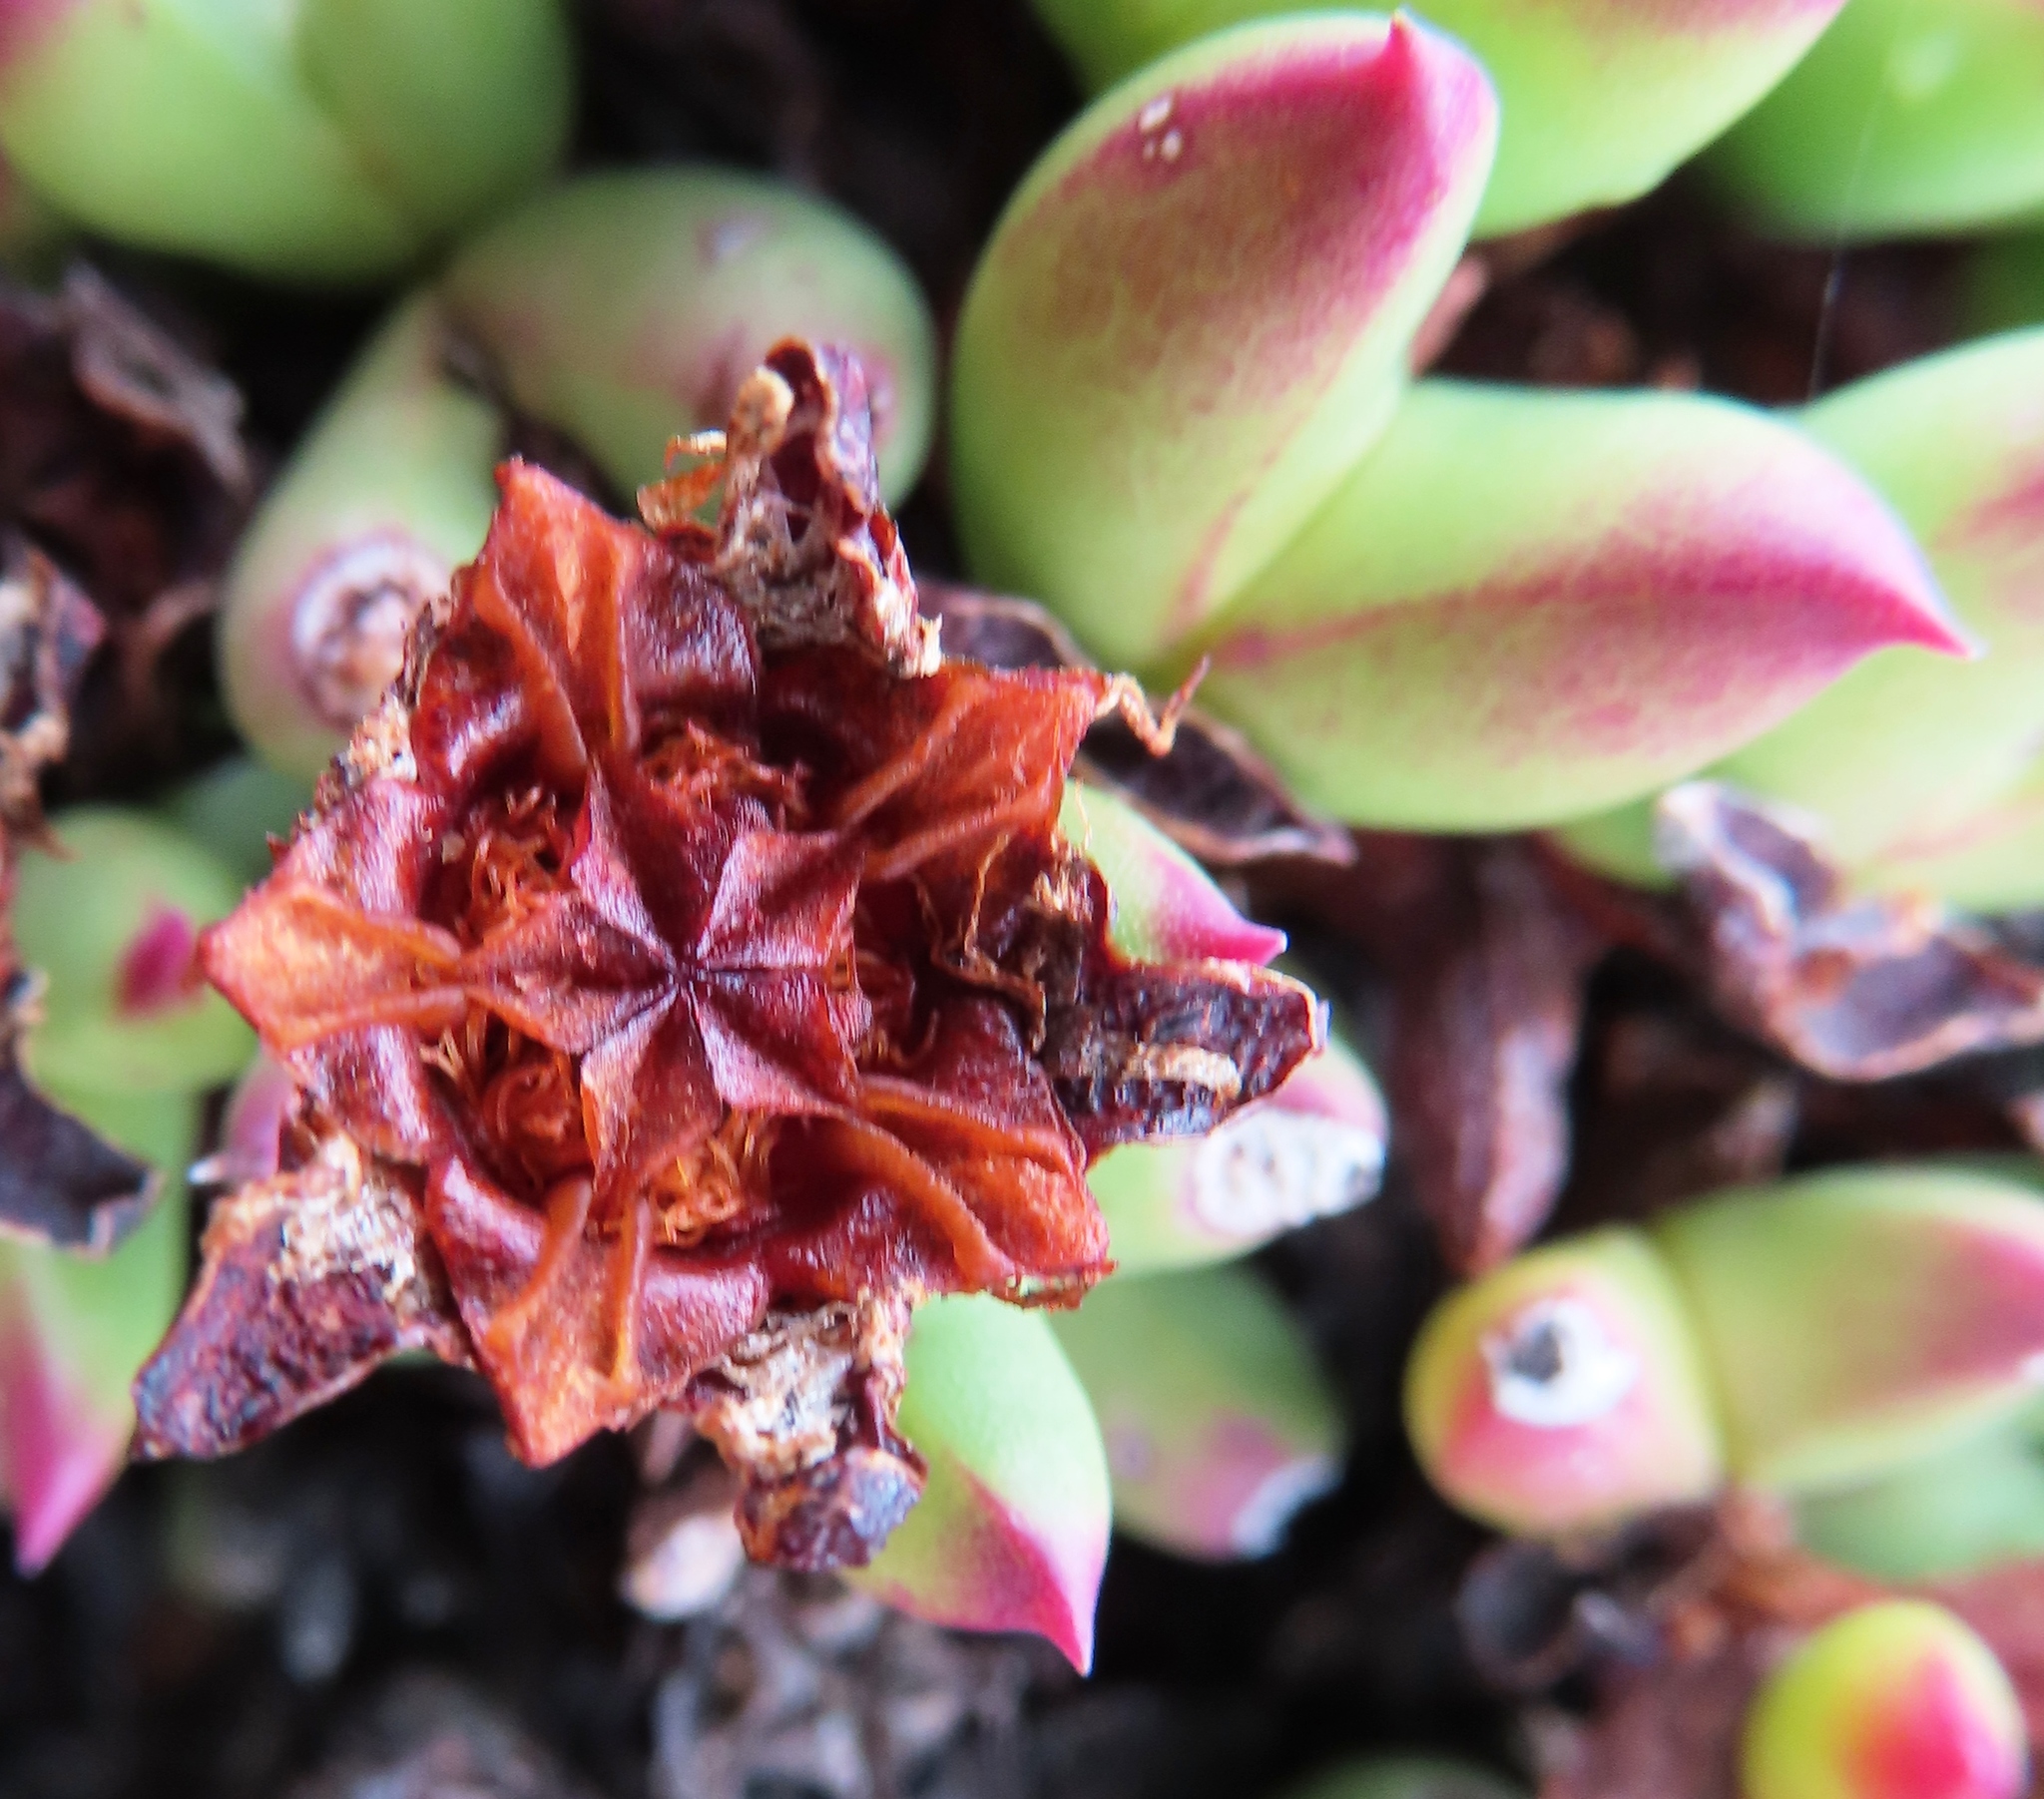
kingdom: Plantae
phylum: Tracheophyta
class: Magnoliopsida
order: Caryophyllales
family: Aizoaceae
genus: Esterhuysenia
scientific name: Esterhuysenia drepanophylla
